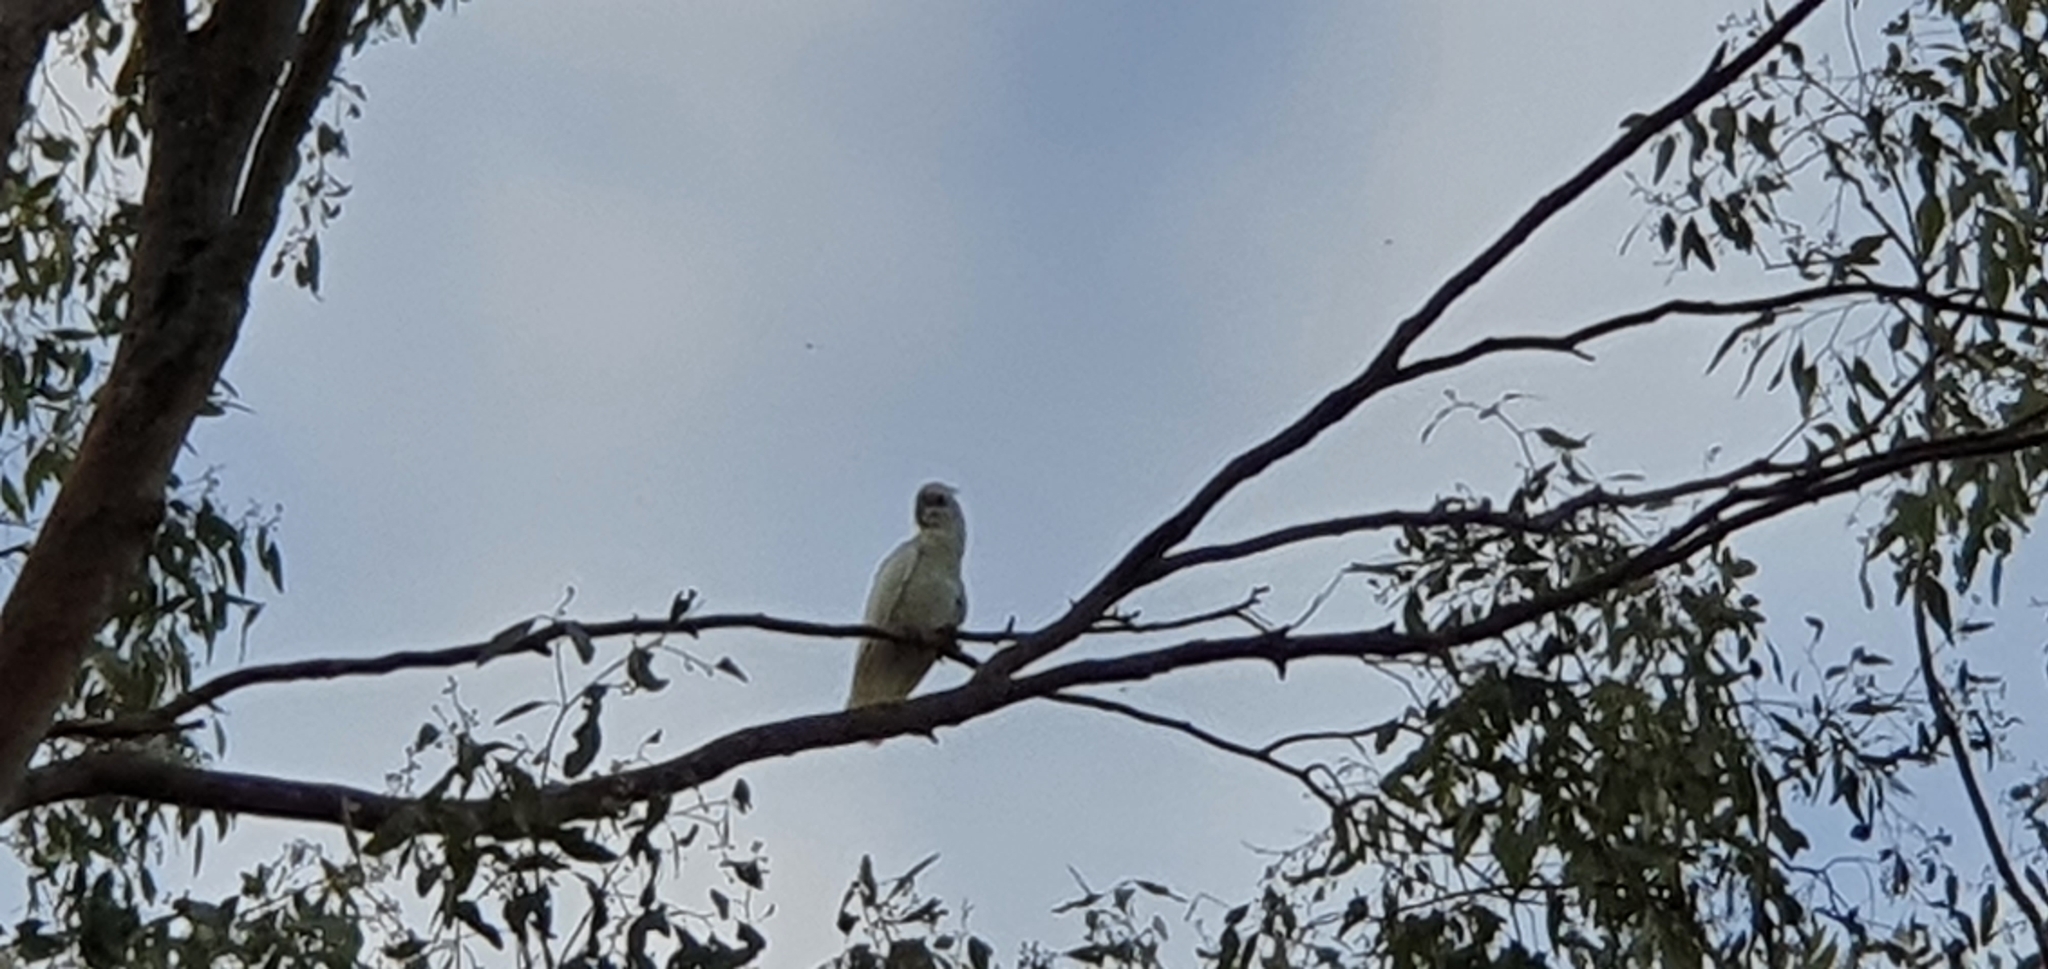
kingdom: Animalia
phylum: Chordata
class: Aves
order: Psittaciformes
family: Psittacidae
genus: Cacatua
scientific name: Cacatua sanguinea
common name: Little corella
